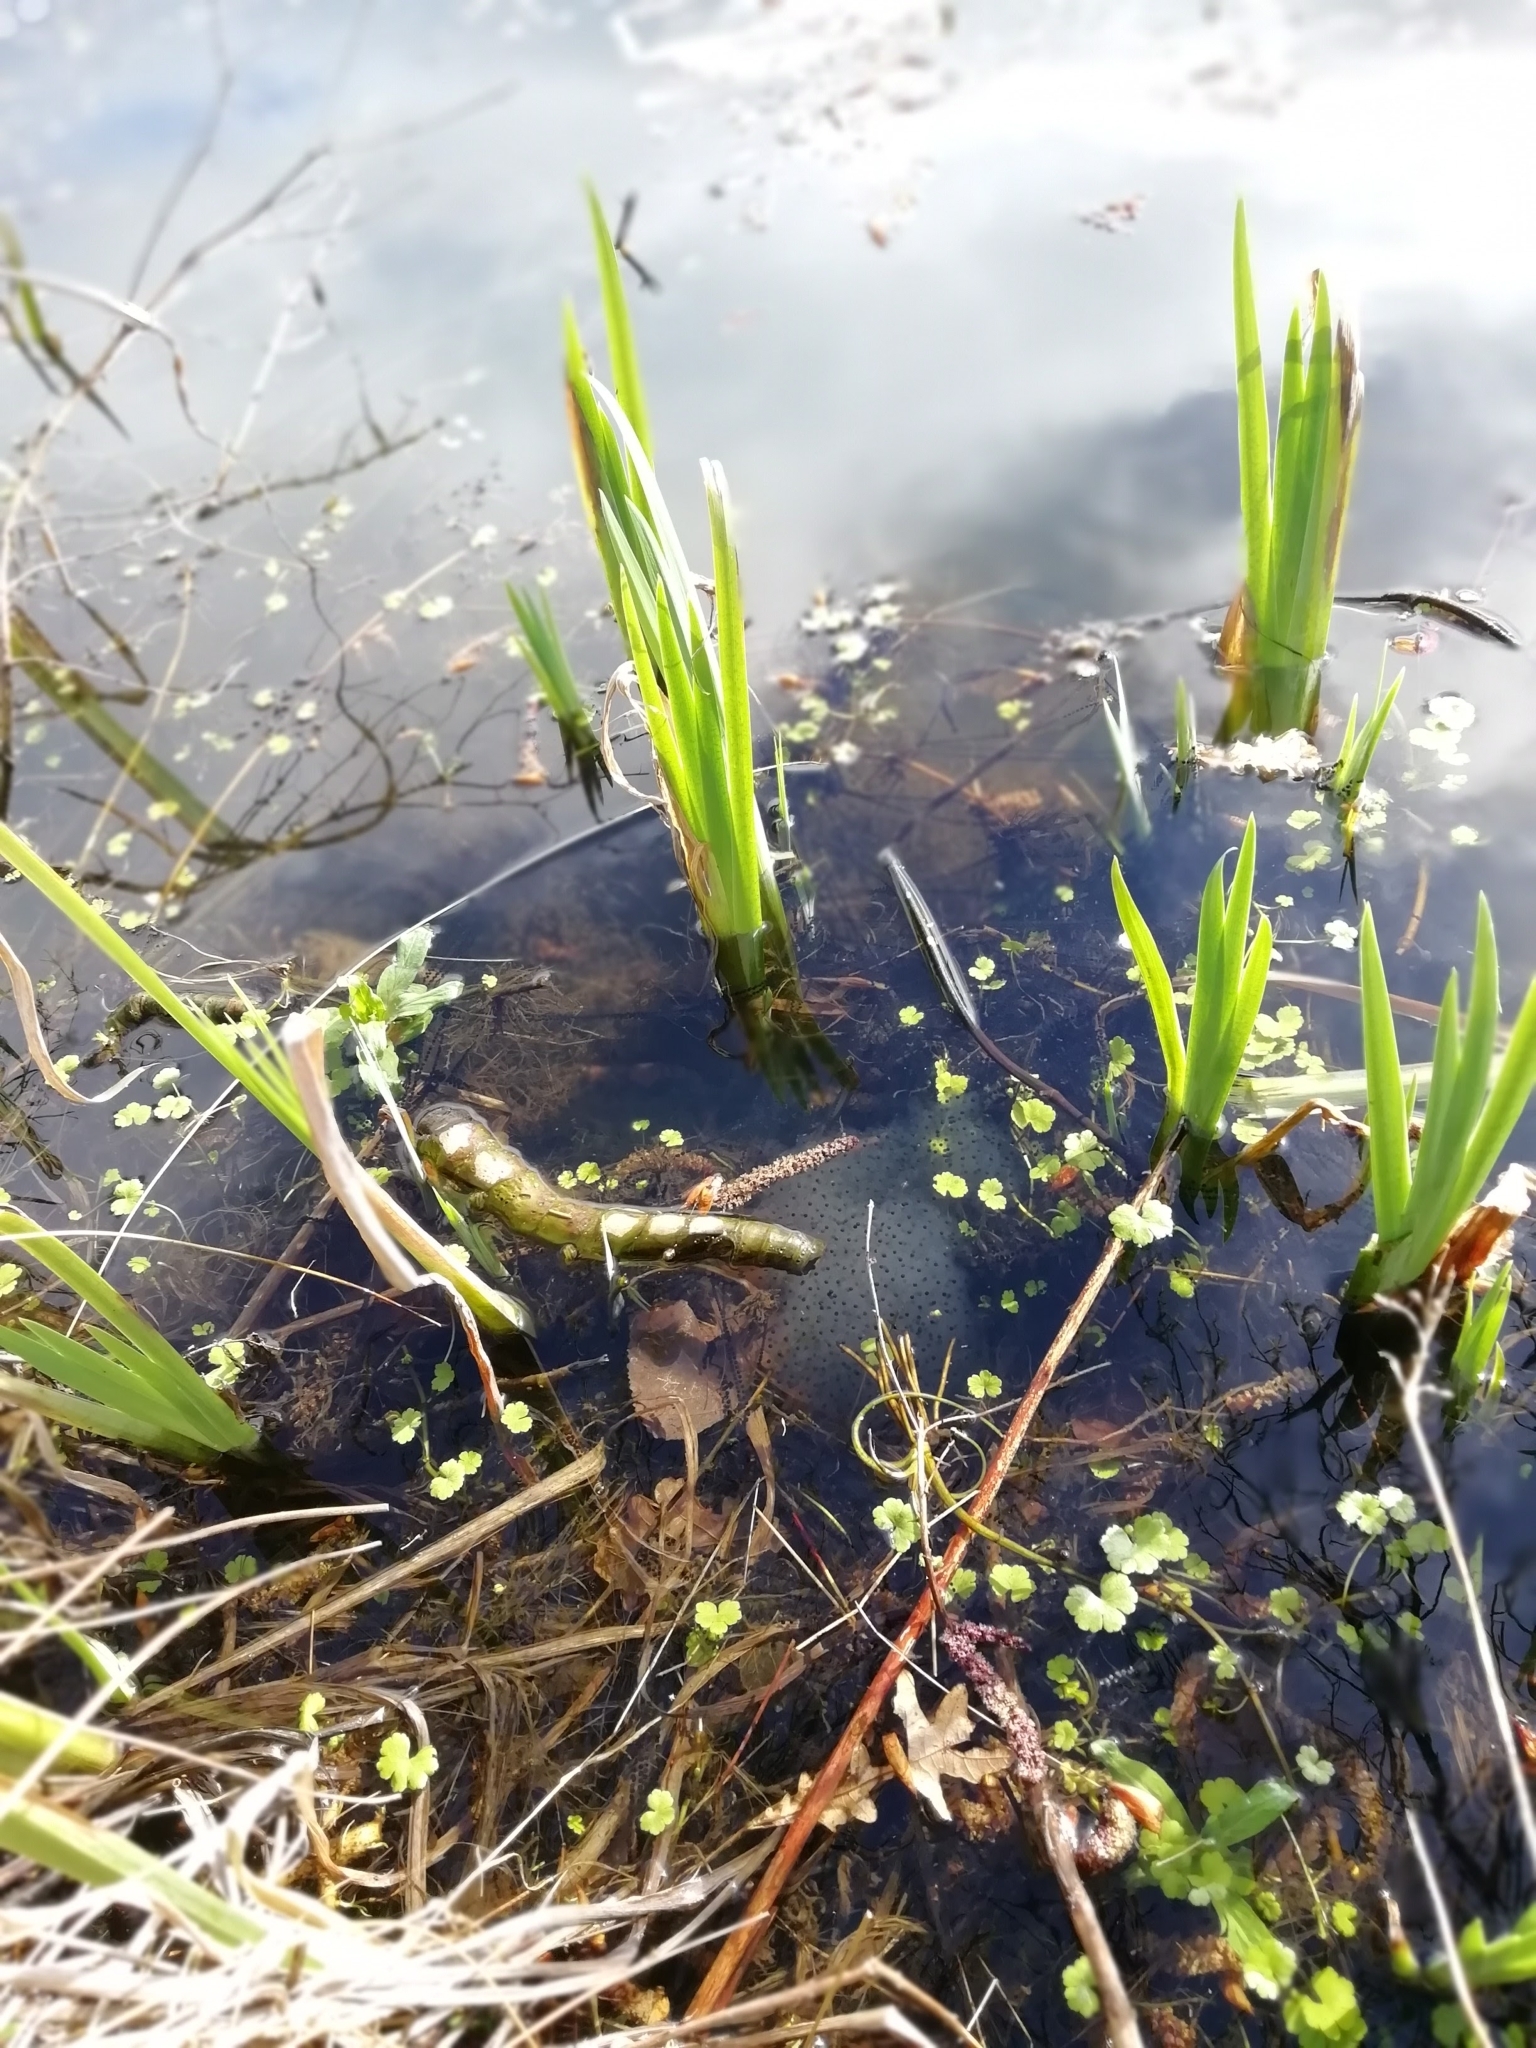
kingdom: Animalia
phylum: Chordata
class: Amphibia
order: Anura
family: Ranidae
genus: Rana
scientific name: Rana temporaria
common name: Common frog
